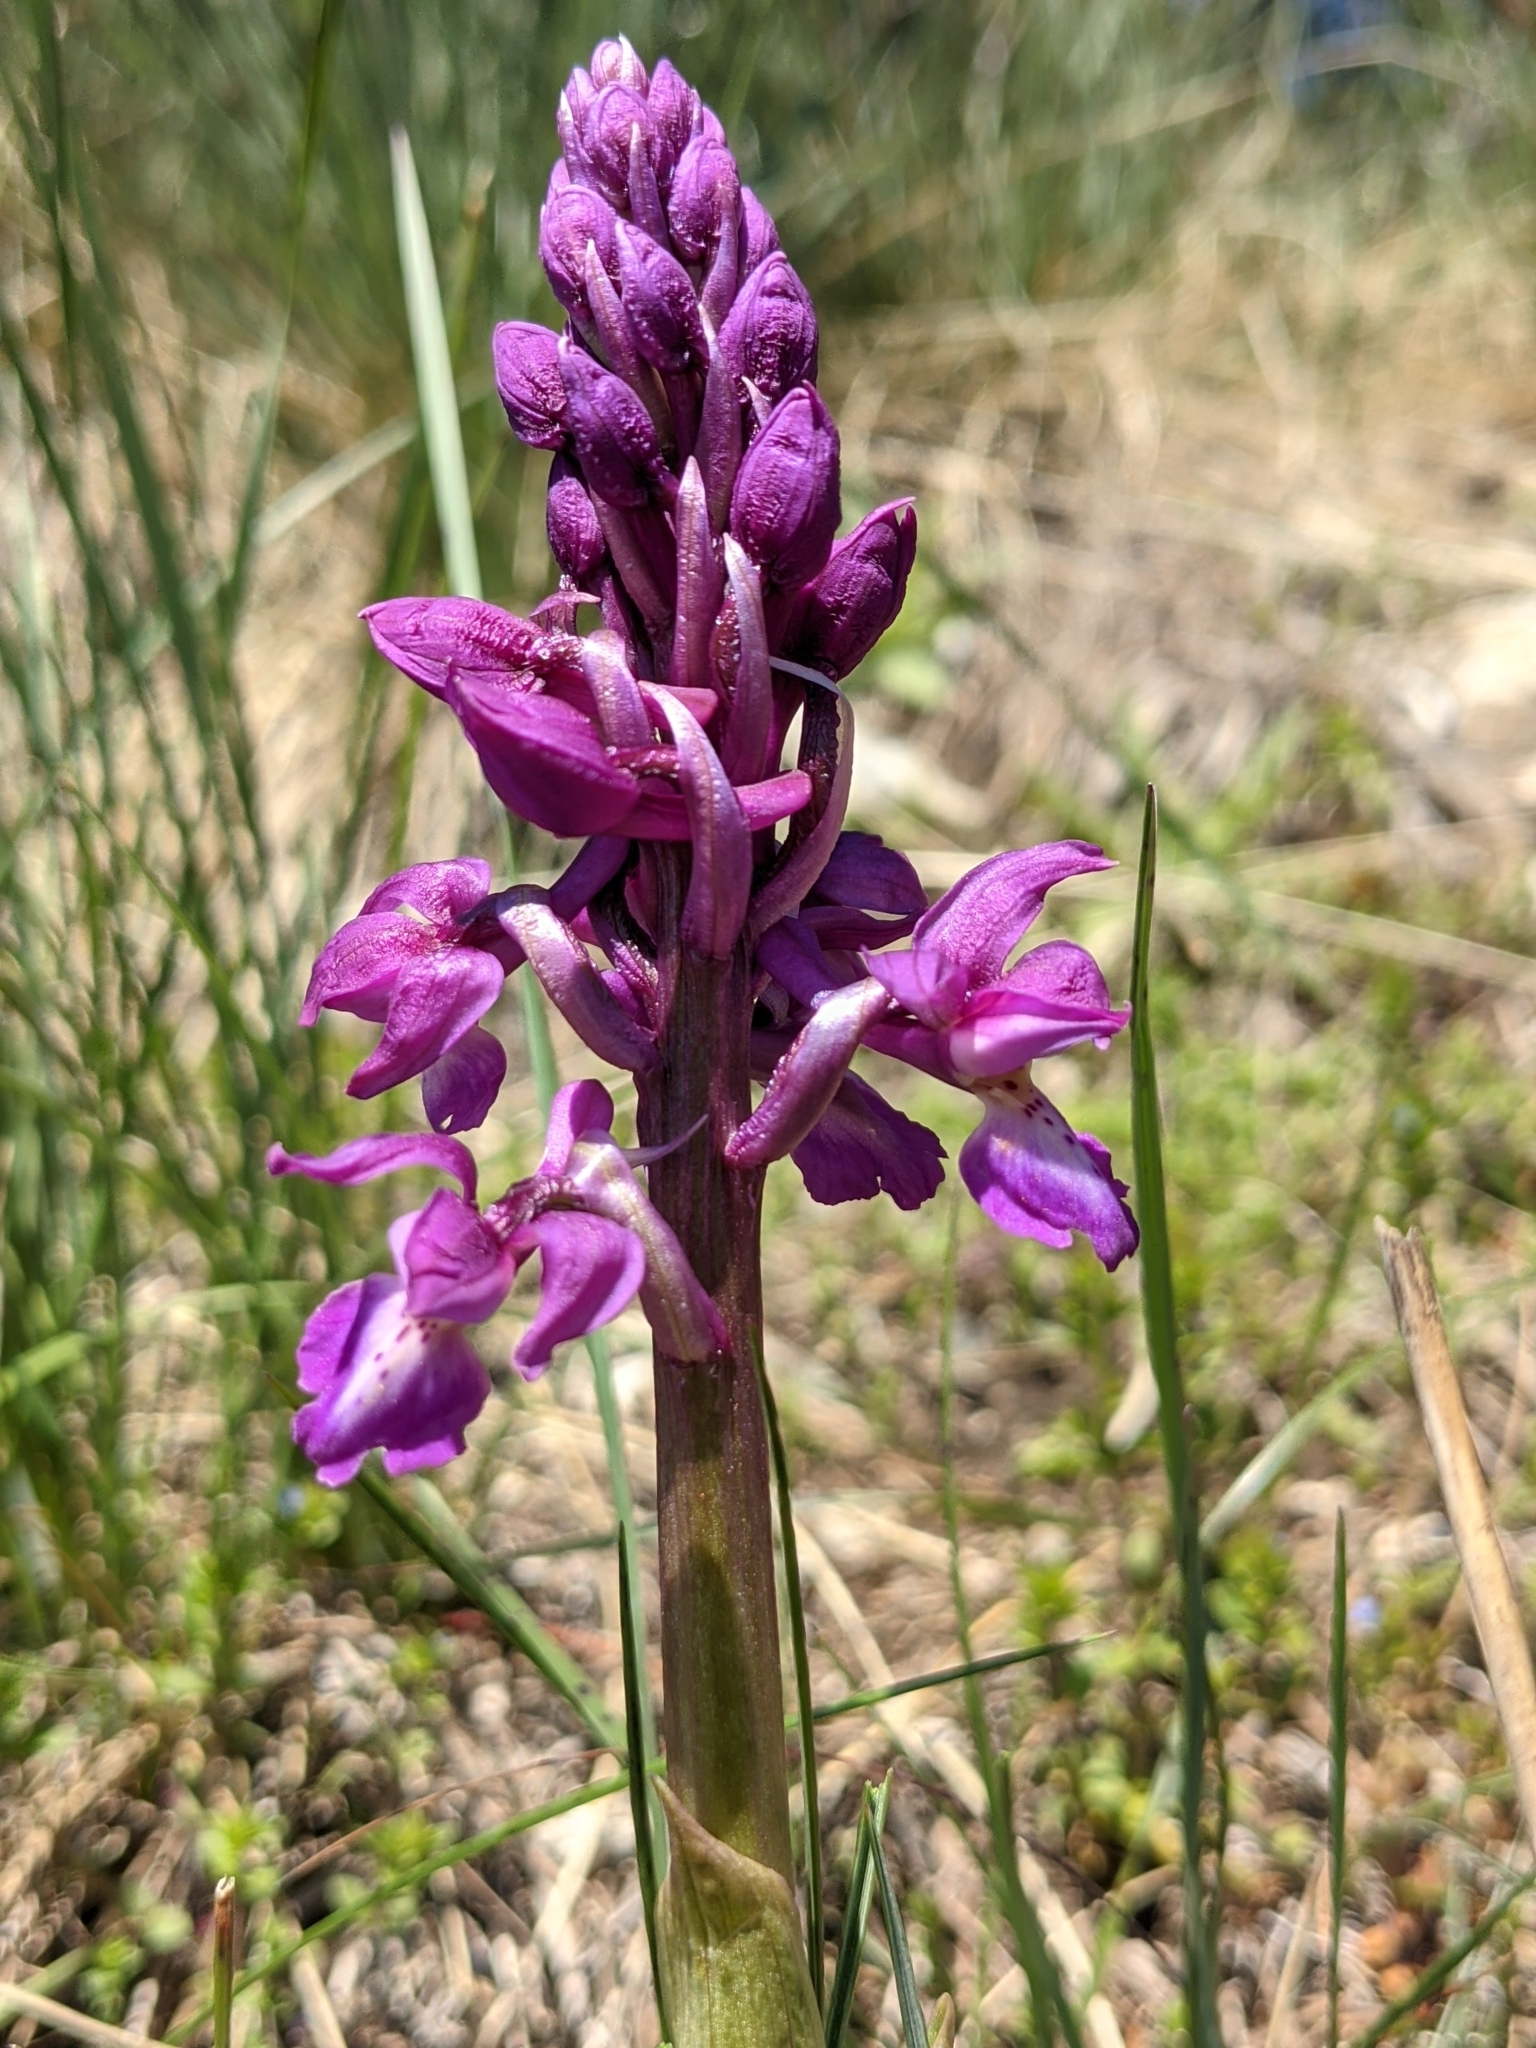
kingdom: Plantae
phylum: Tracheophyta
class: Liliopsida
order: Asparagales
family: Orchidaceae
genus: Orchis
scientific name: Orchis mascula
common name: Early-purple orchid
